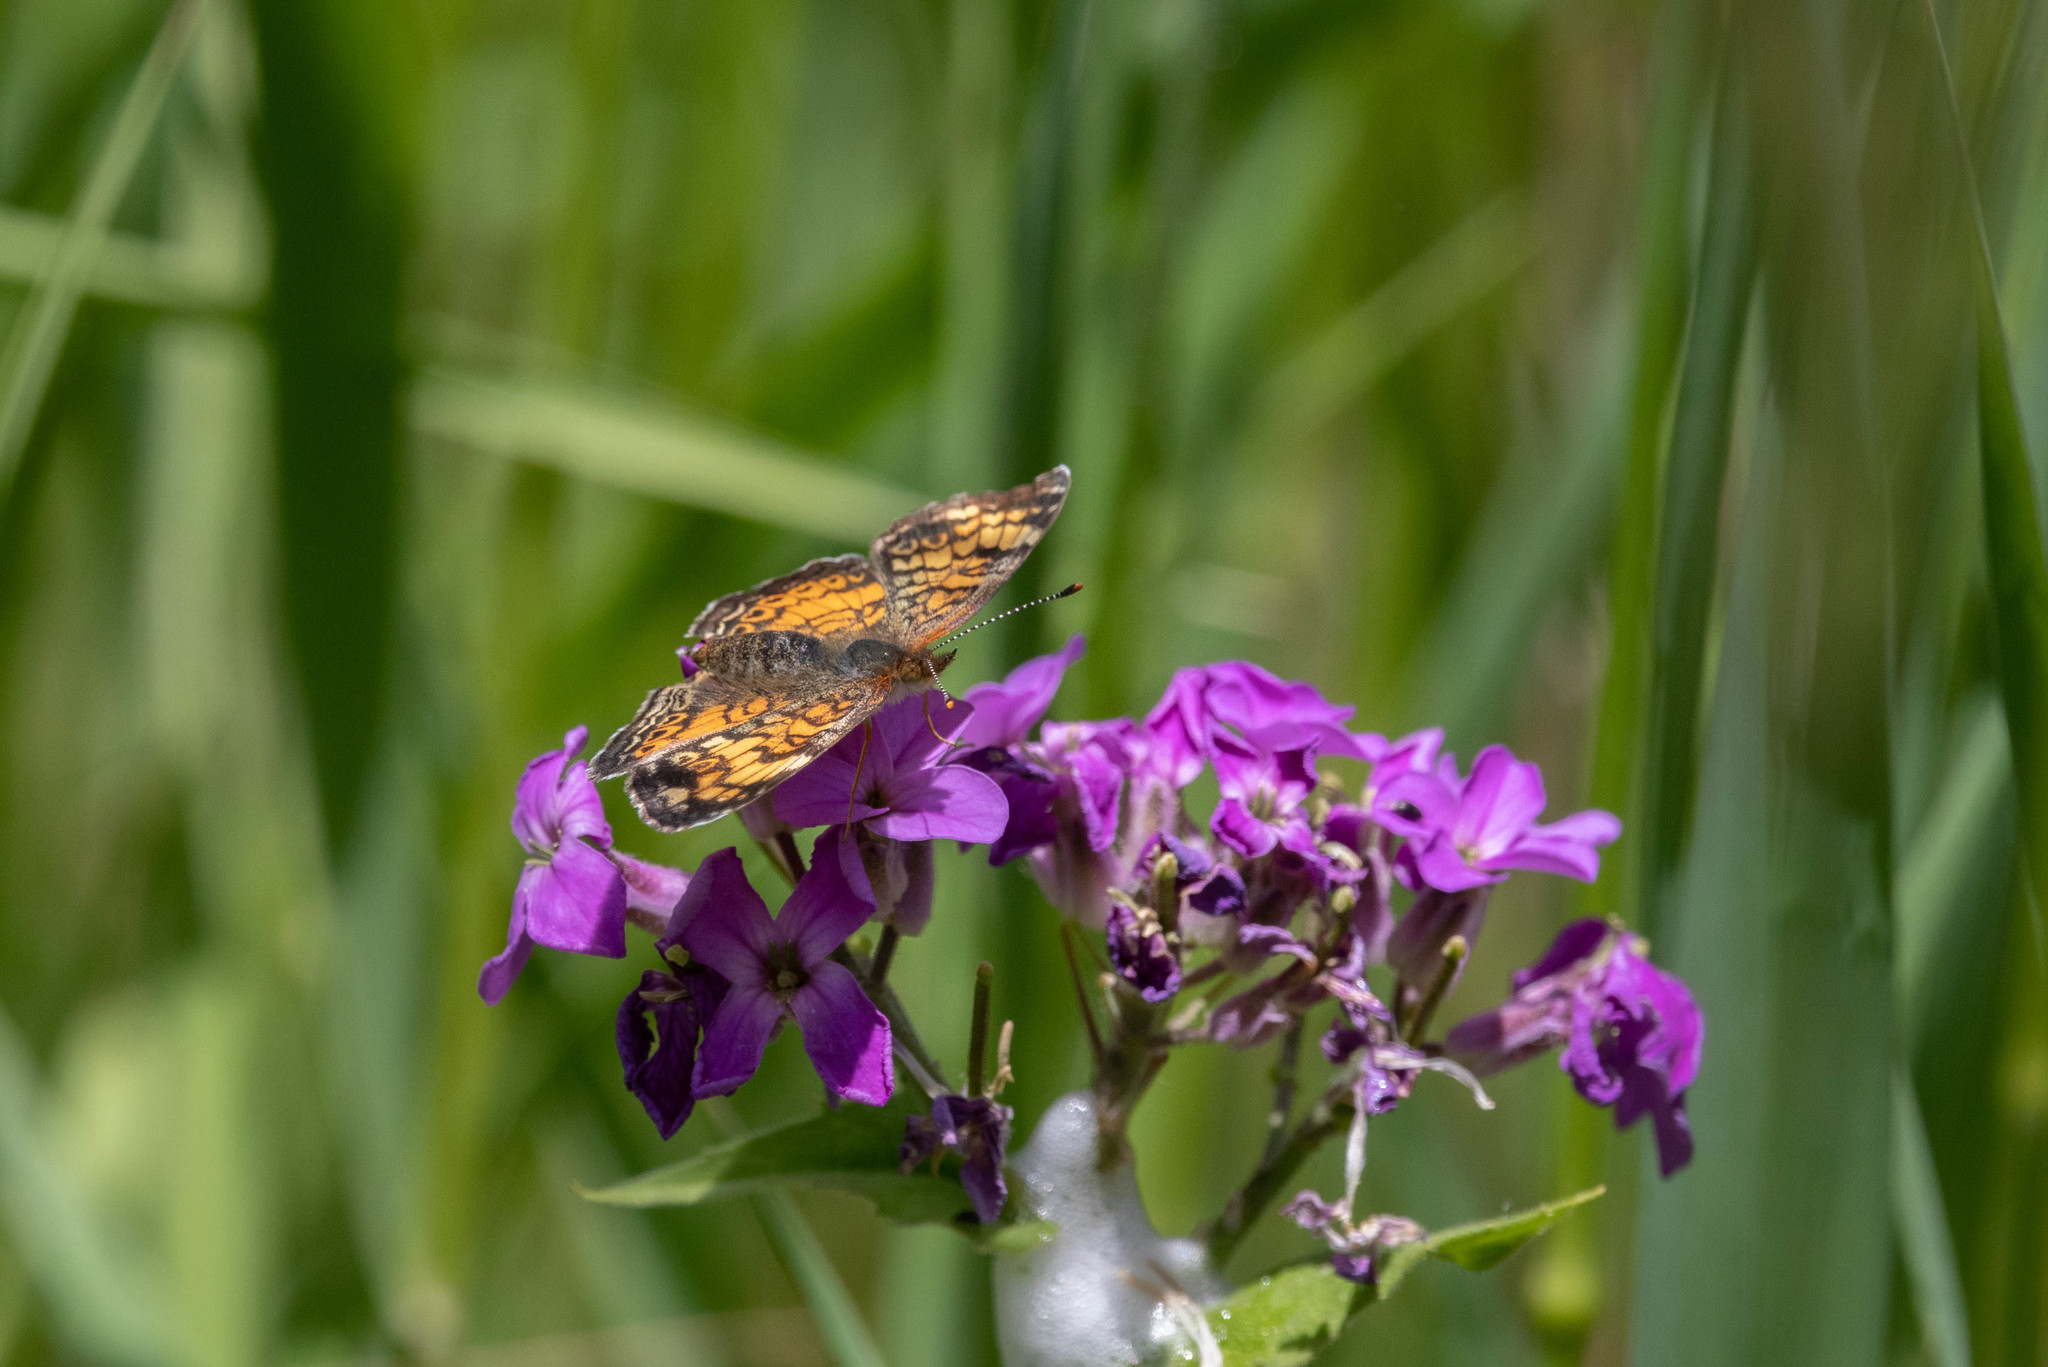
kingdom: Animalia
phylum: Arthropoda
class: Insecta
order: Lepidoptera
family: Nymphalidae
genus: Phyciodes
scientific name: Phyciodes tharos
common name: Pearl crescent
